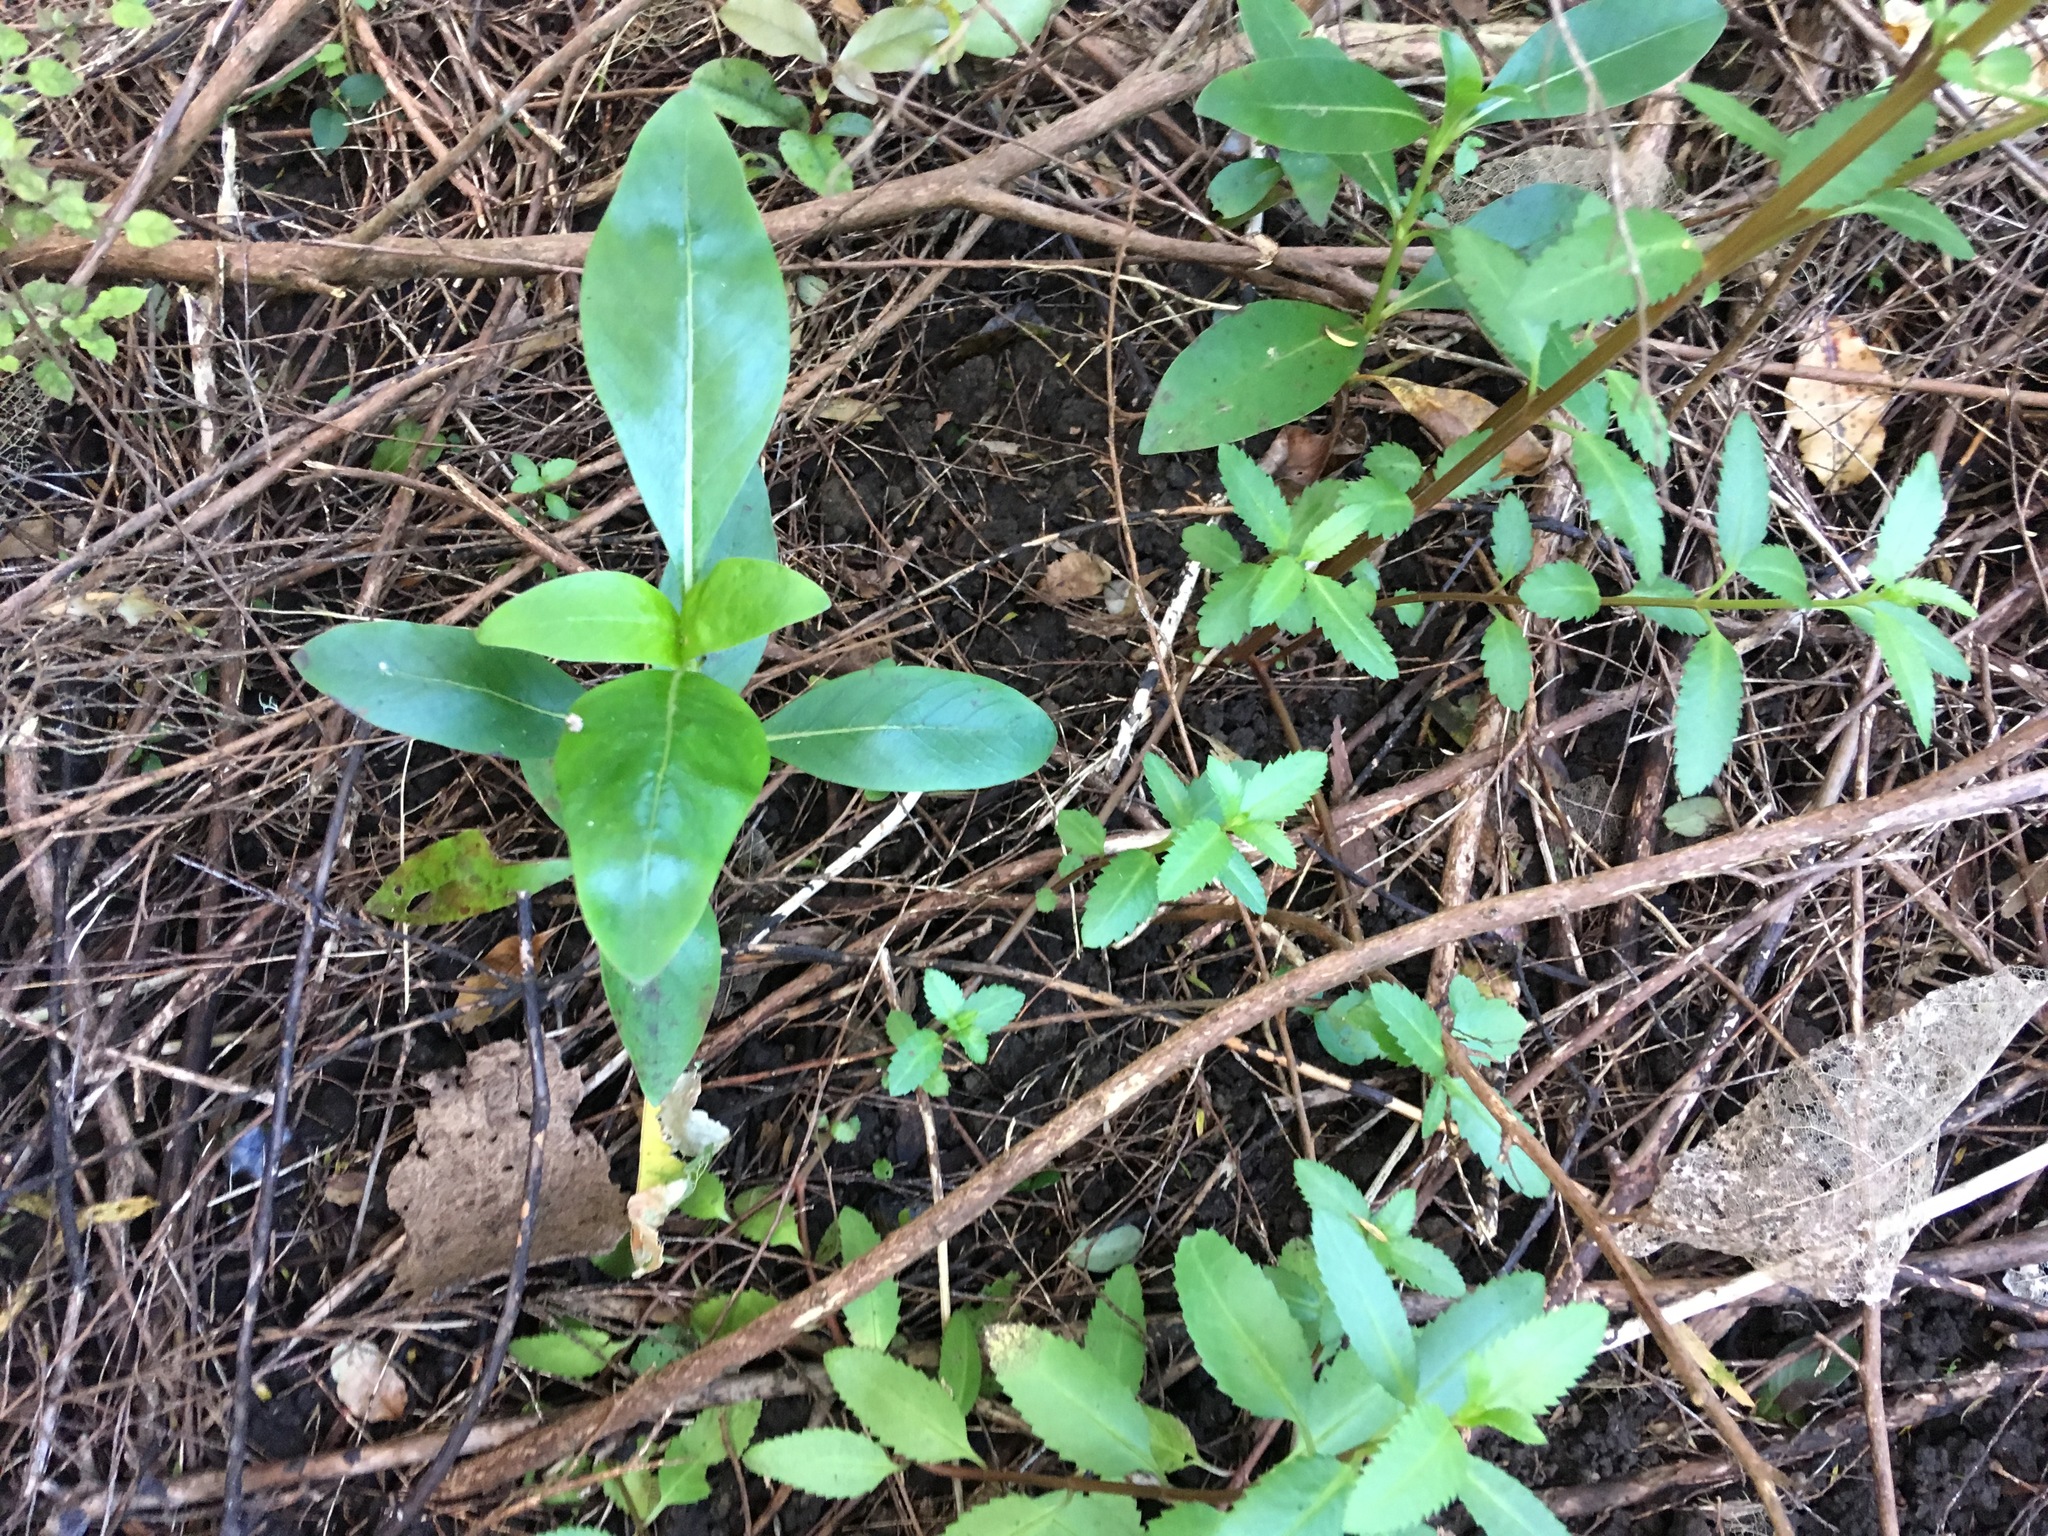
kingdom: Plantae
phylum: Tracheophyta
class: Magnoliopsida
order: Gentianales
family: Rubiaceae
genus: Coprosma
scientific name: Coprosma robusta
